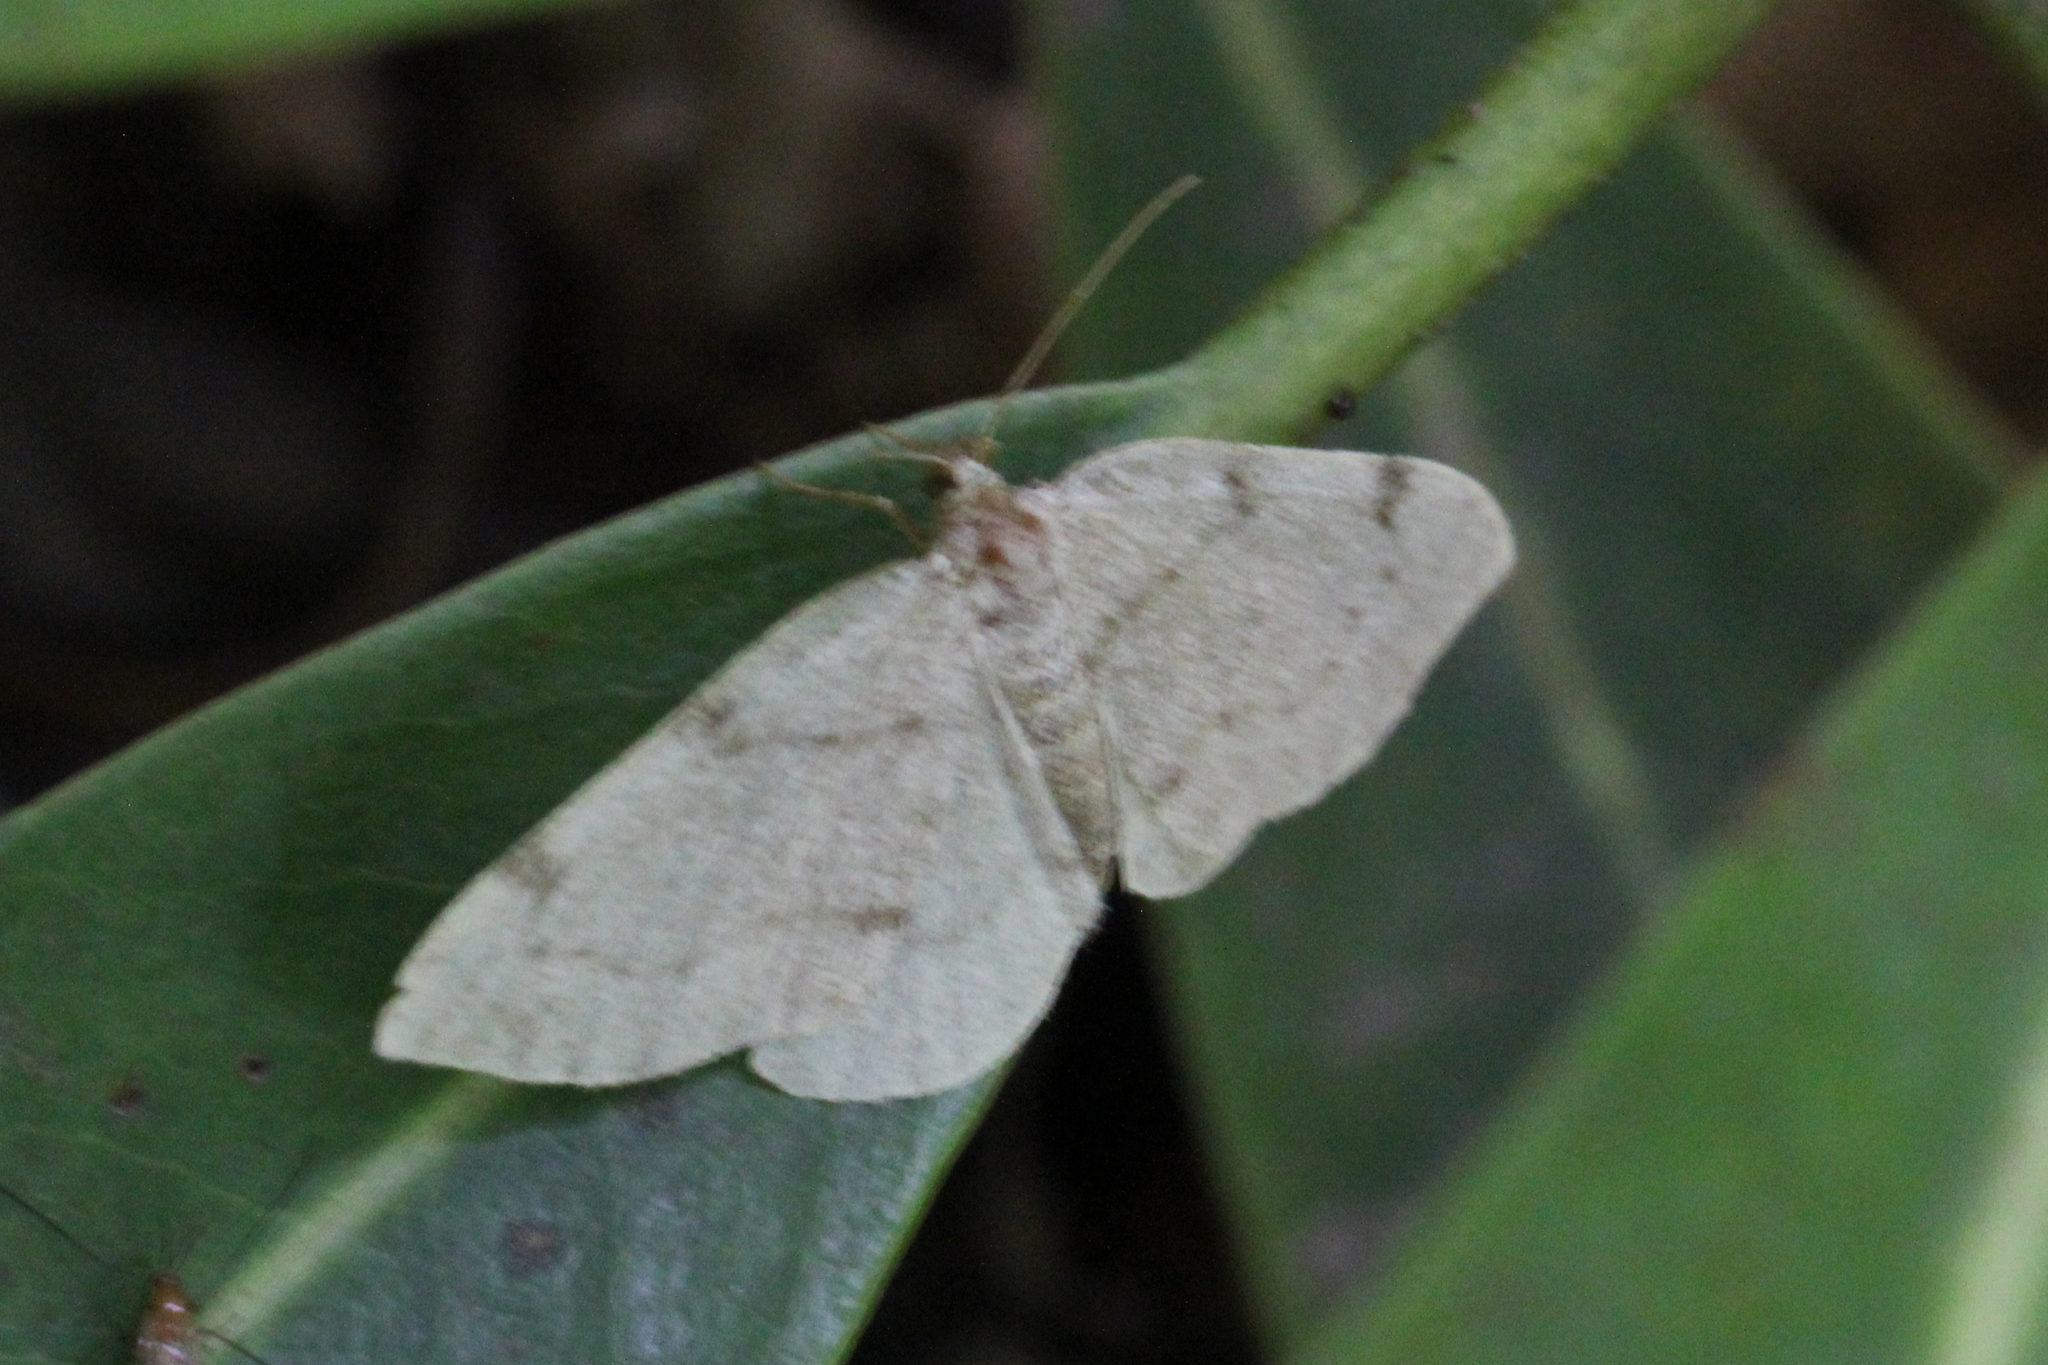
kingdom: Animalia
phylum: Arthropoda
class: Insecta
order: Lepidoptera
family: Geometridae
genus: Heterophleps
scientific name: Heterophleps refusaria
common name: Three-patched bigwing
